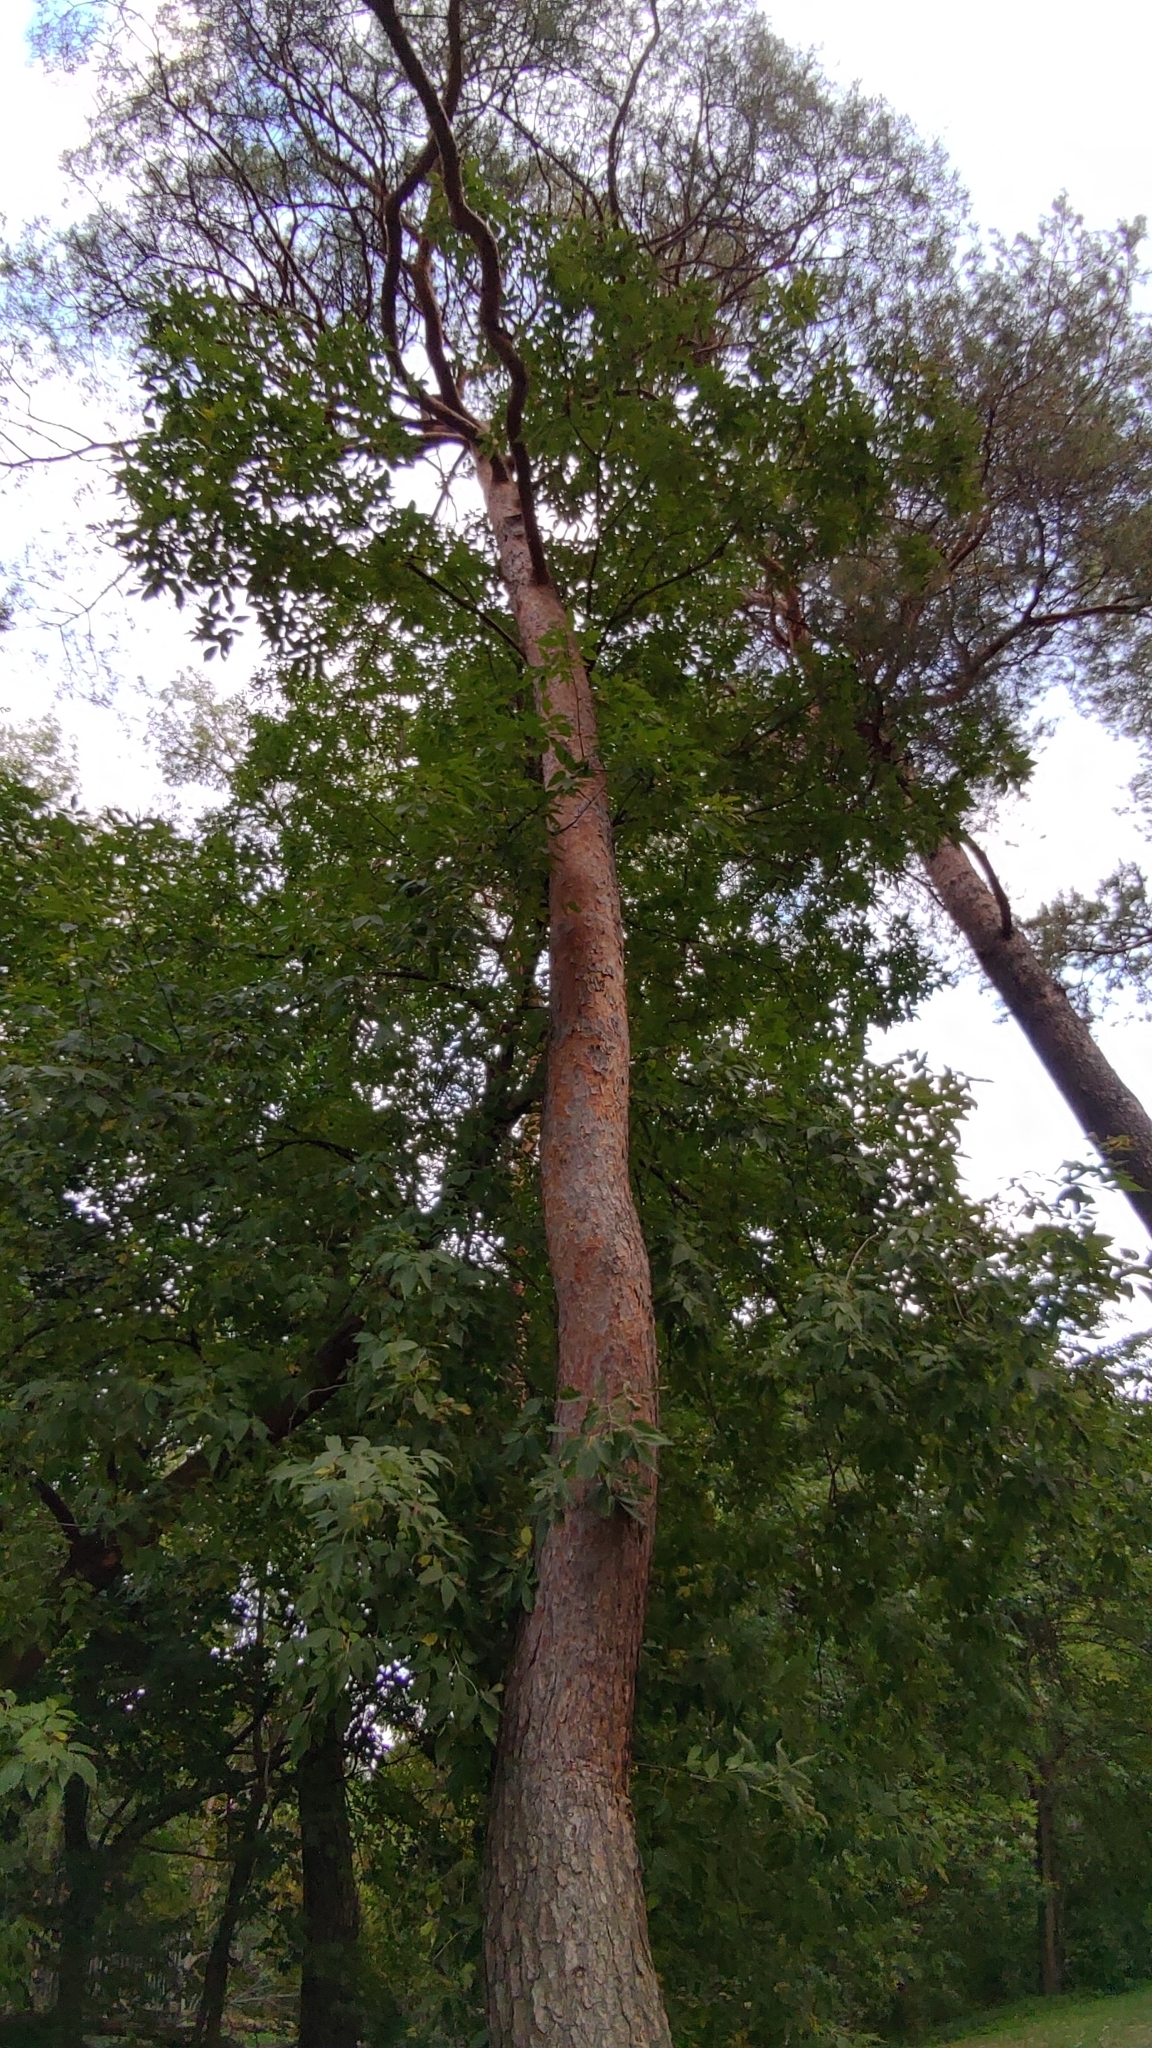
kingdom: Plantae
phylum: Tracheophyta
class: Pinopsida
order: Pinales
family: Pinaceae
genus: Pinus
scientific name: Pinus sylvestris
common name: Scots pine
